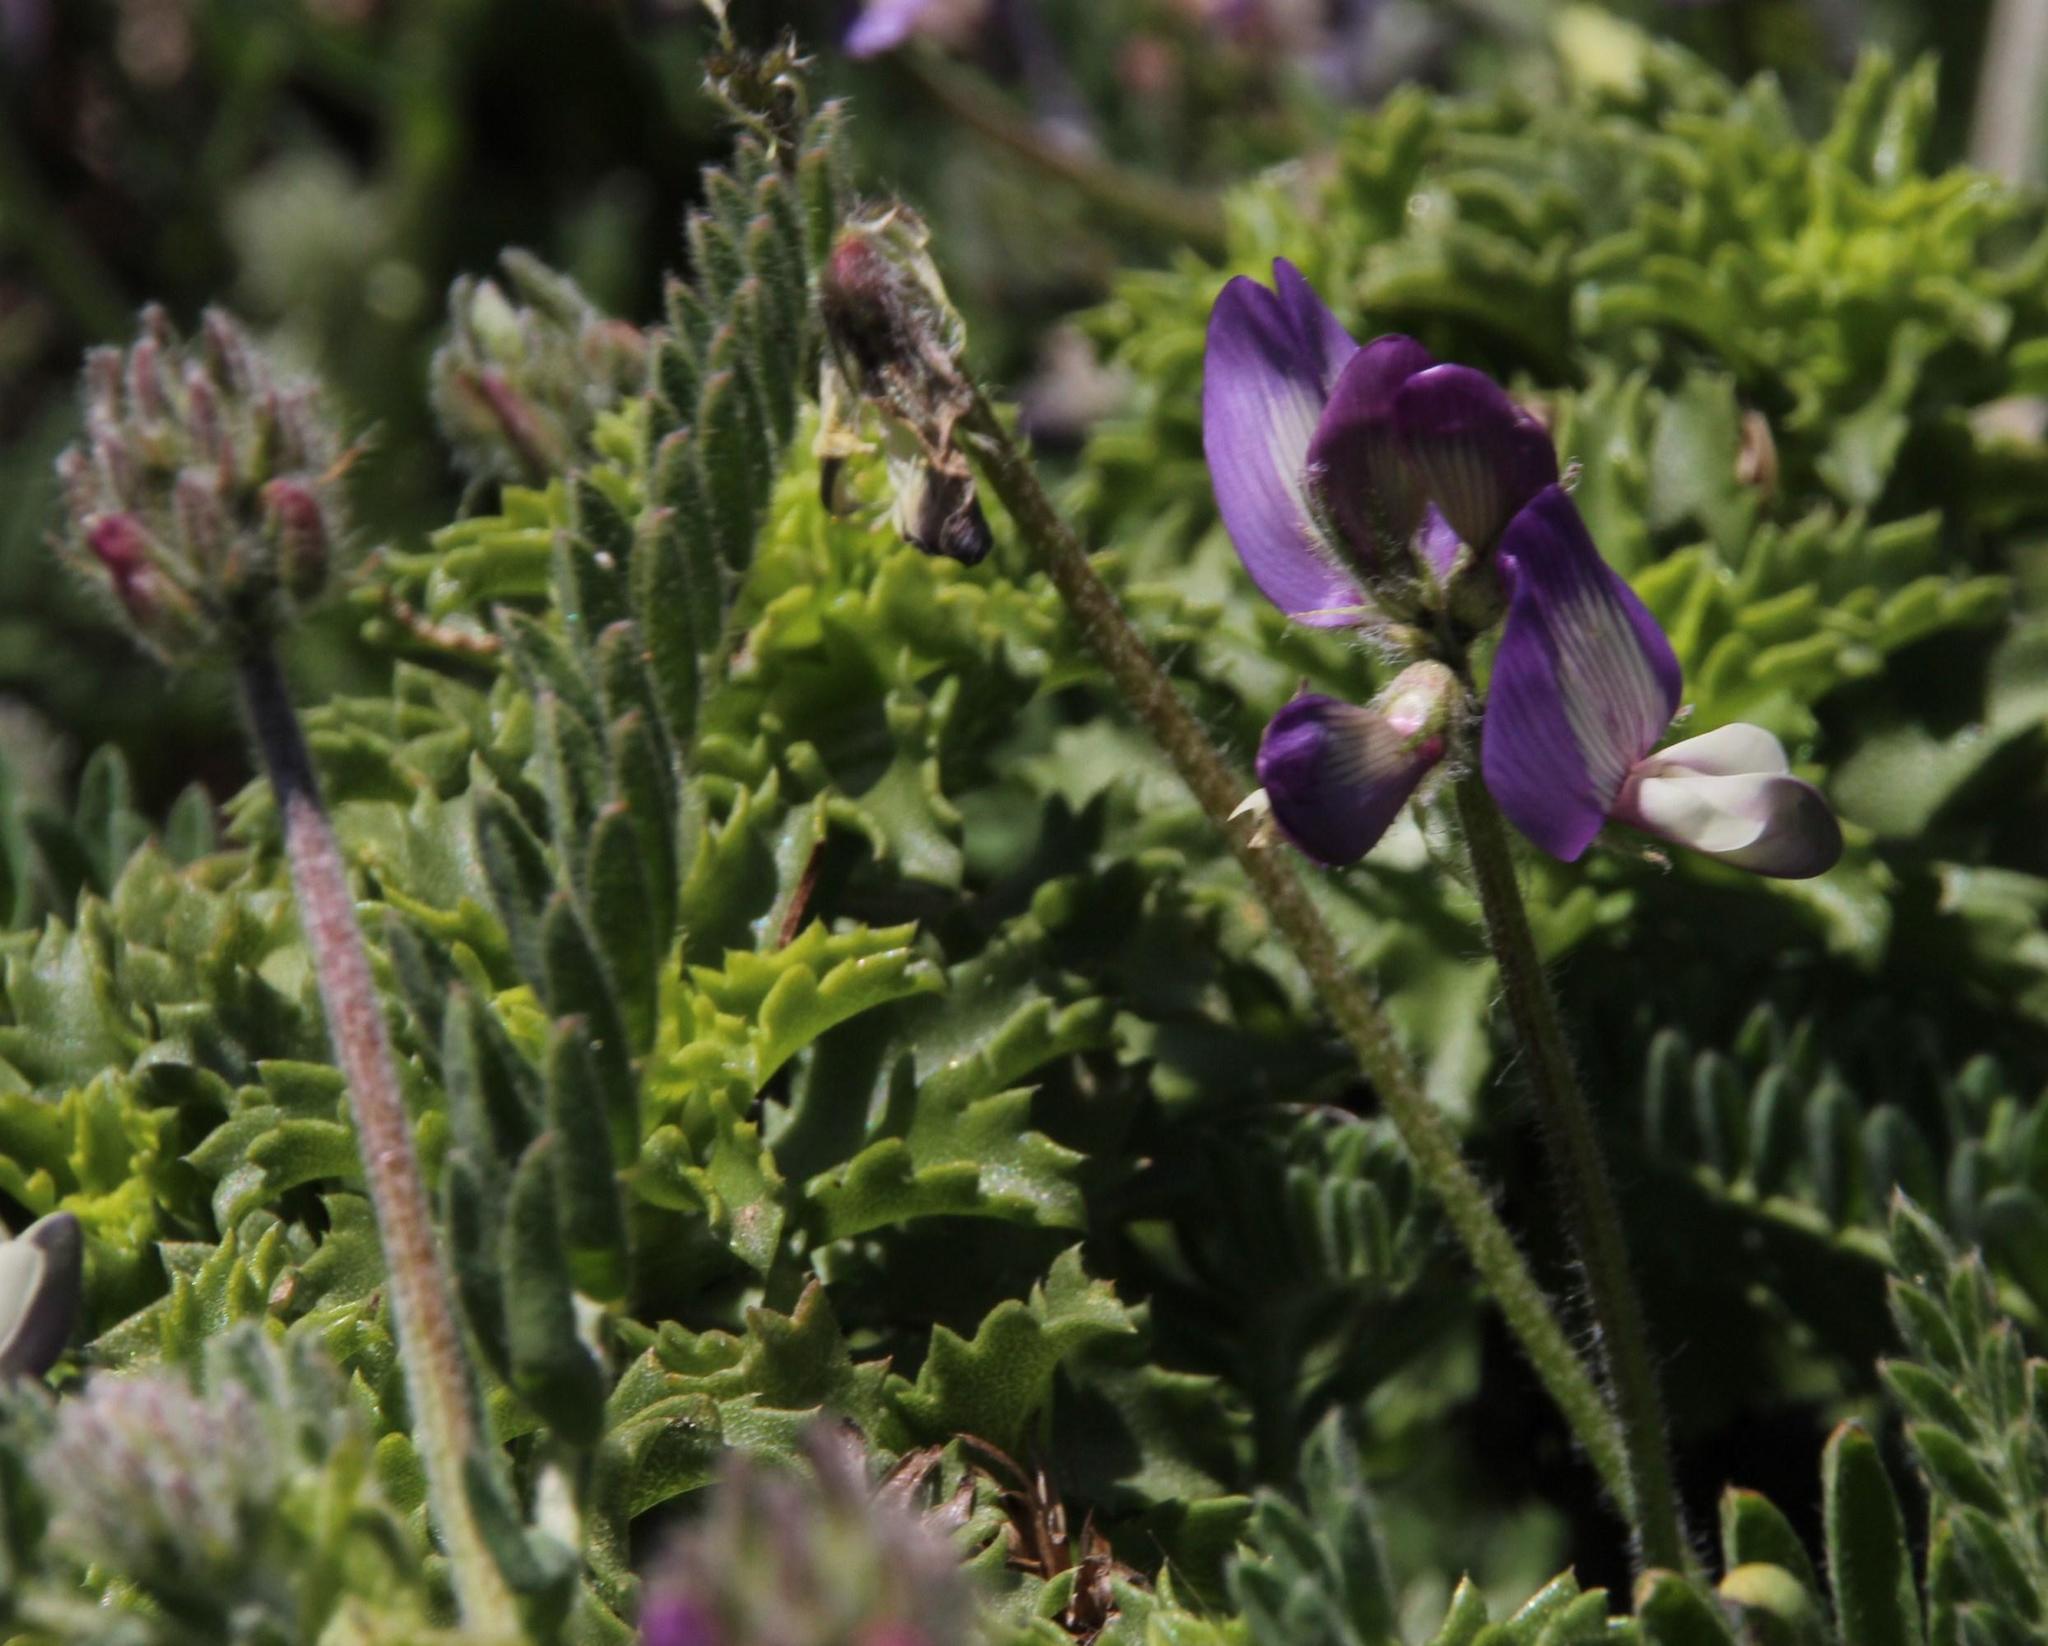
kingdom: Plantae
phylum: Tracheophyta
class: Magnoliopsida
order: Fabales
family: Fabaceae
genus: Astragalus
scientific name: Astragalus amatus
